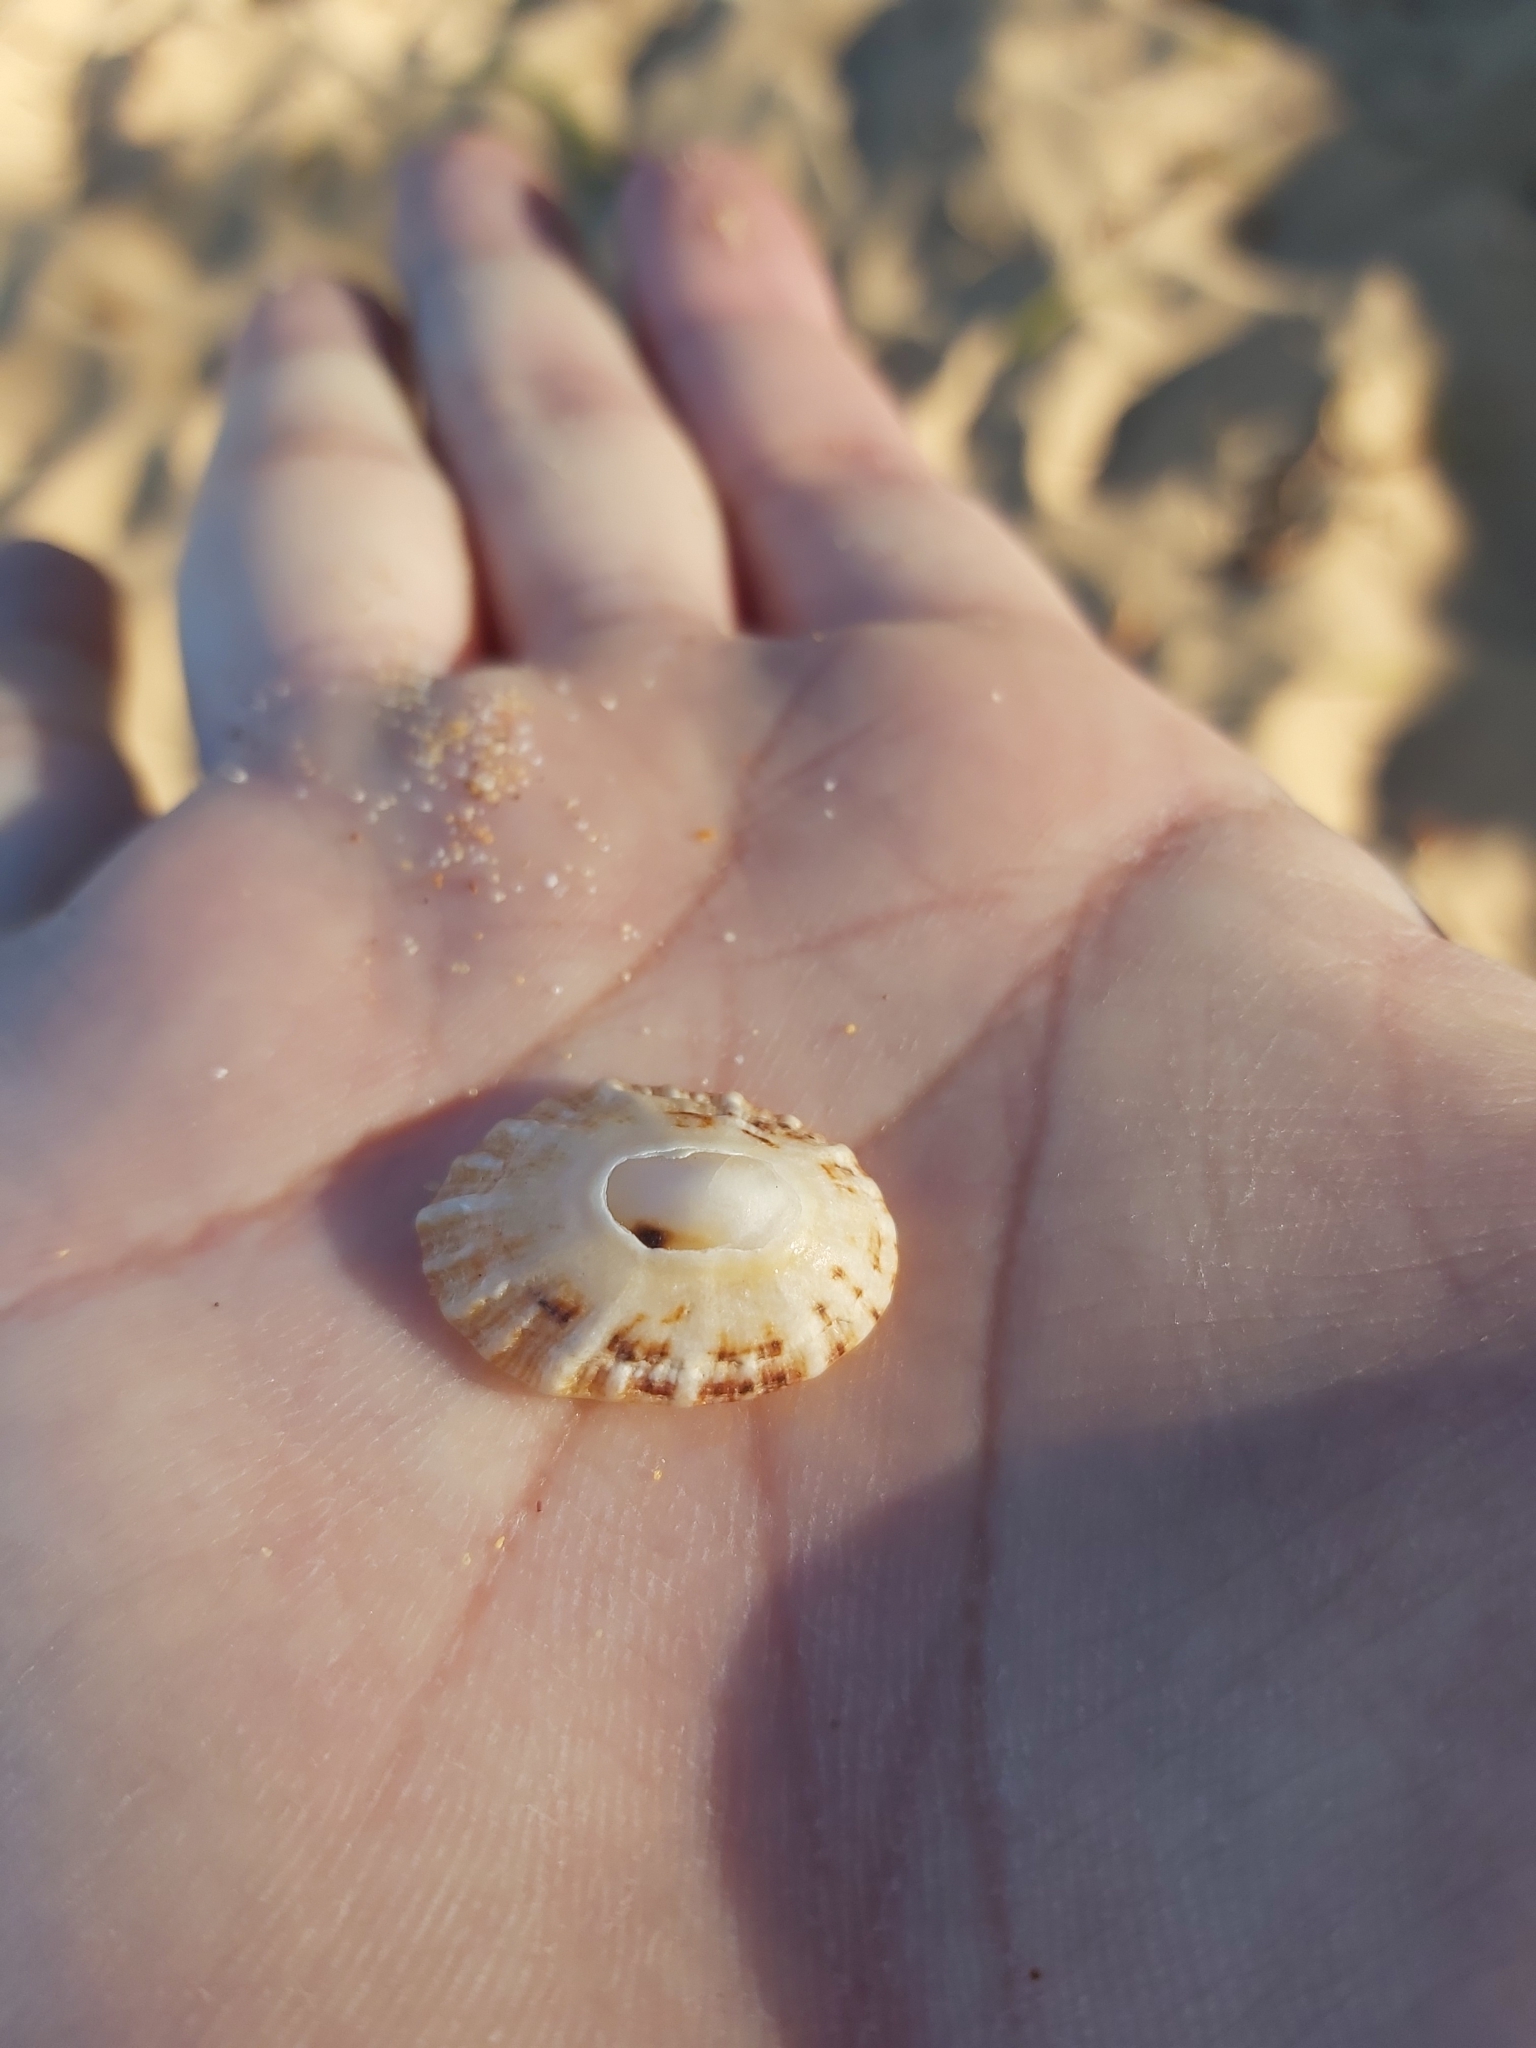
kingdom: Animalia
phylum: Mollusca
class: Gastropoda
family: Patellidae
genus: Scutellastra
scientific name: Scutellastra peronii
